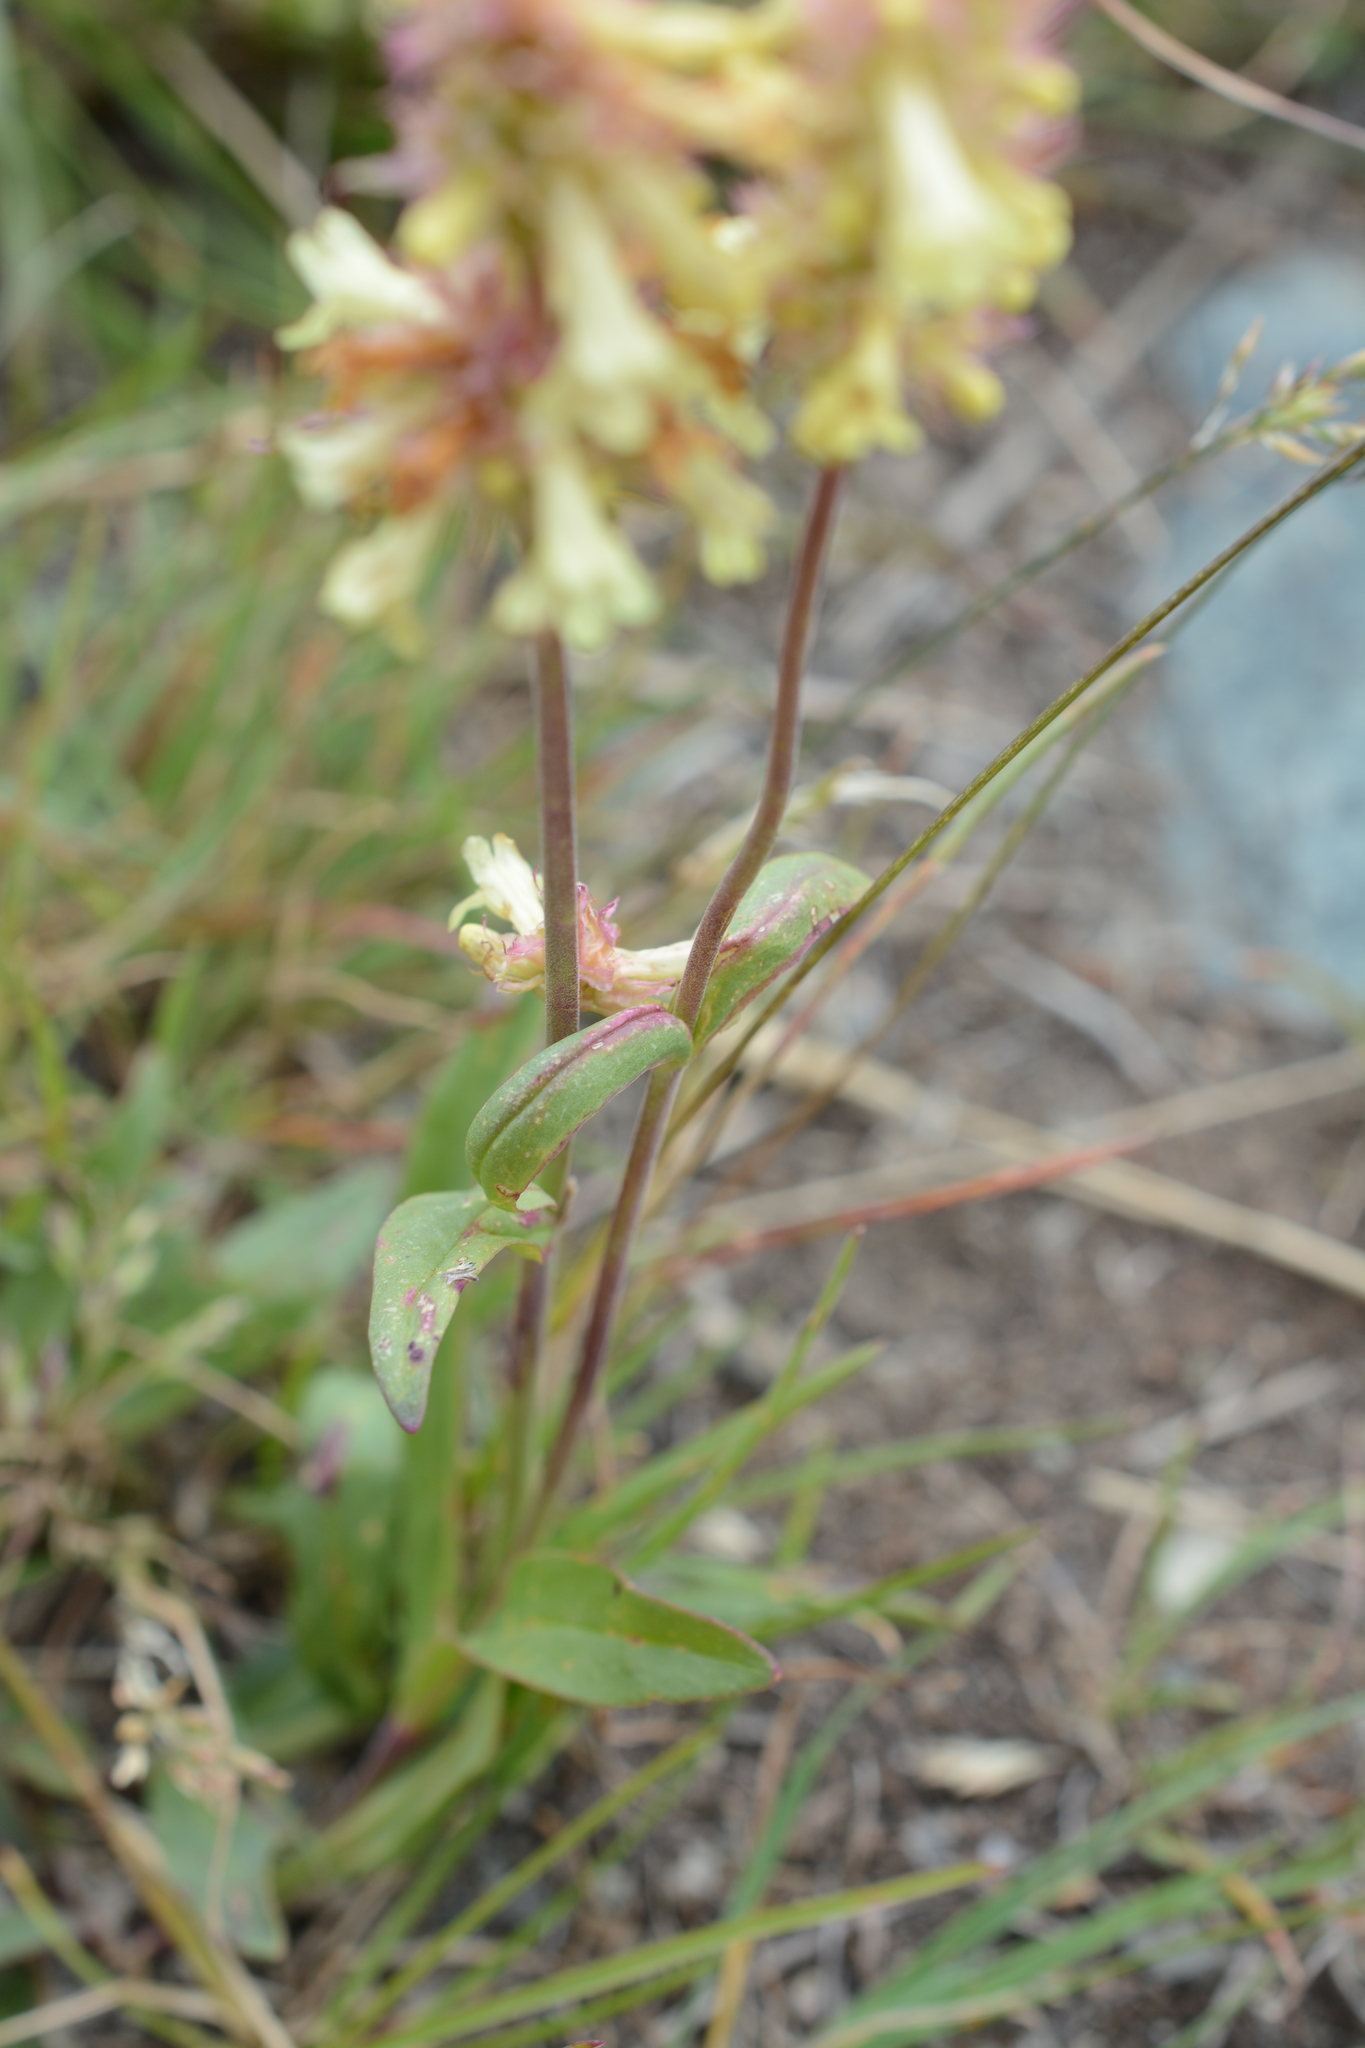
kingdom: Plantae
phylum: Tracheophyta
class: Magnoliopsida
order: Lamiales
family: Plantaginaceae
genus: Penstemon
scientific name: Penstemon confertus
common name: Lesser yellow beardtongue
